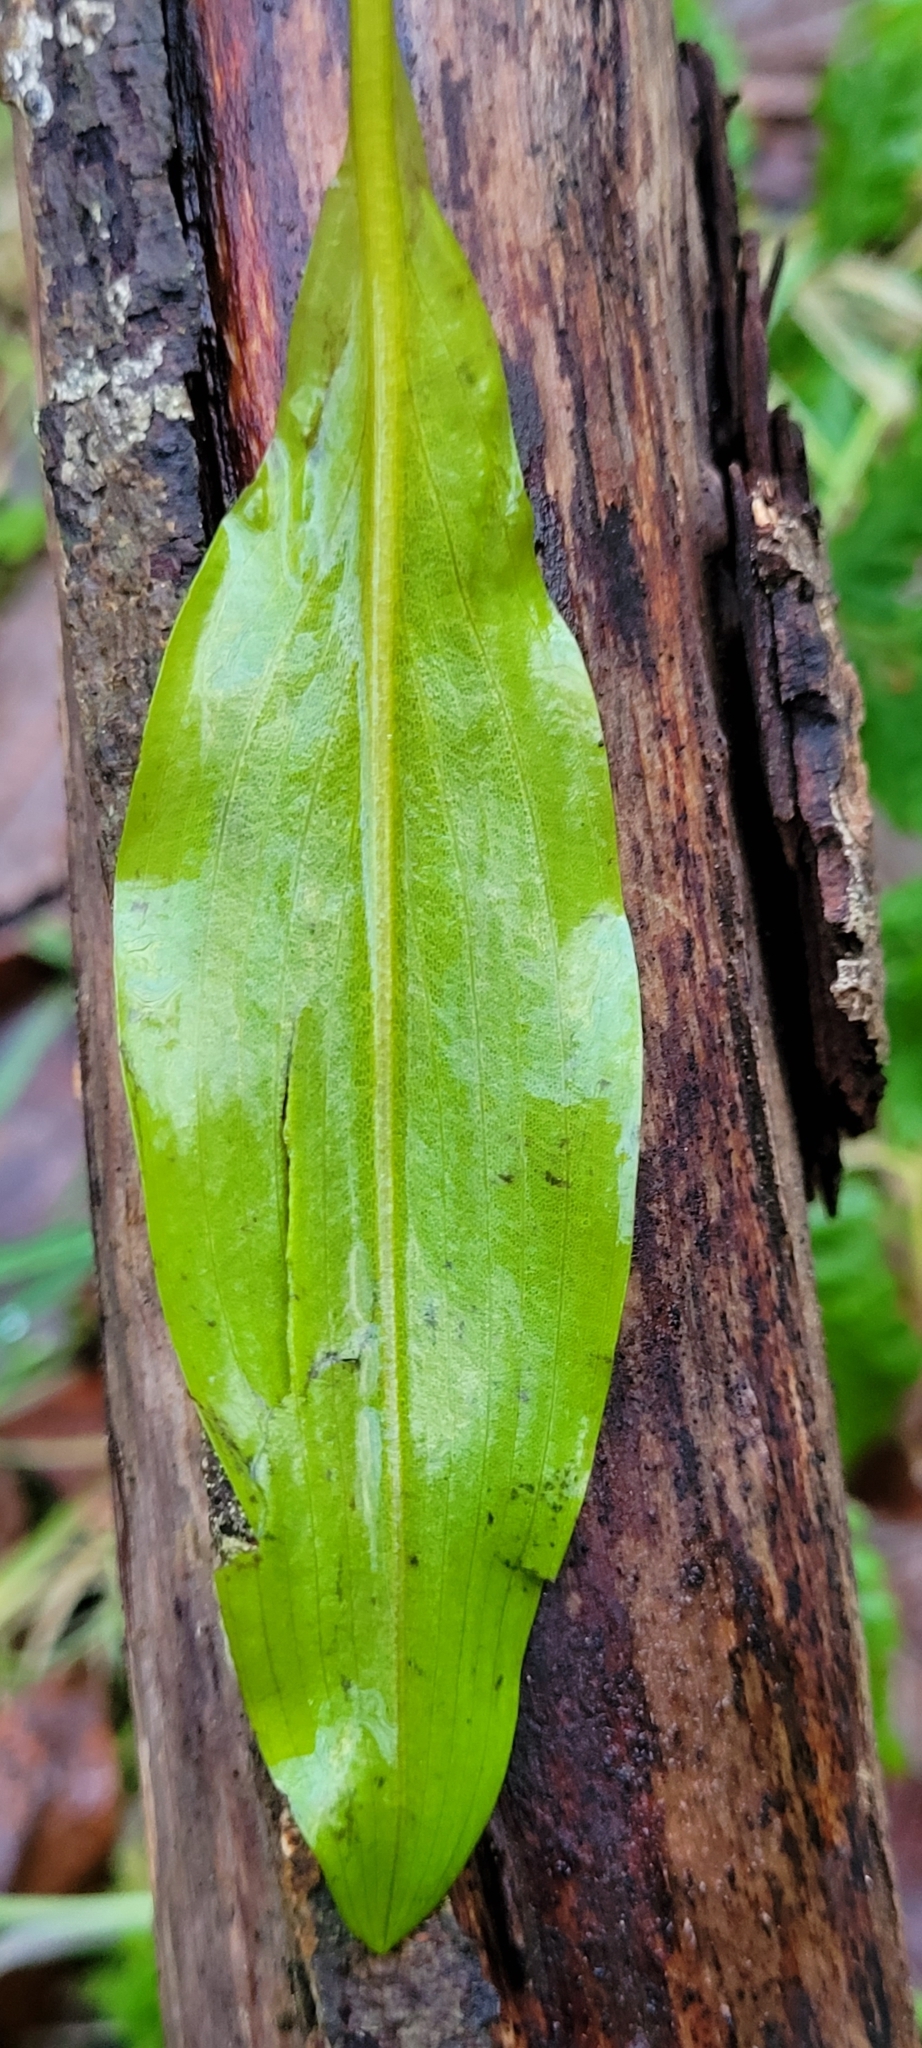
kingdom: Plantae
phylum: Tracheophyta
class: Liliopsida
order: Alismatales
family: Potamogetonaceae
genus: Potamogeton
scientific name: Potamogeton polygonifolius
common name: Bog pondweed
